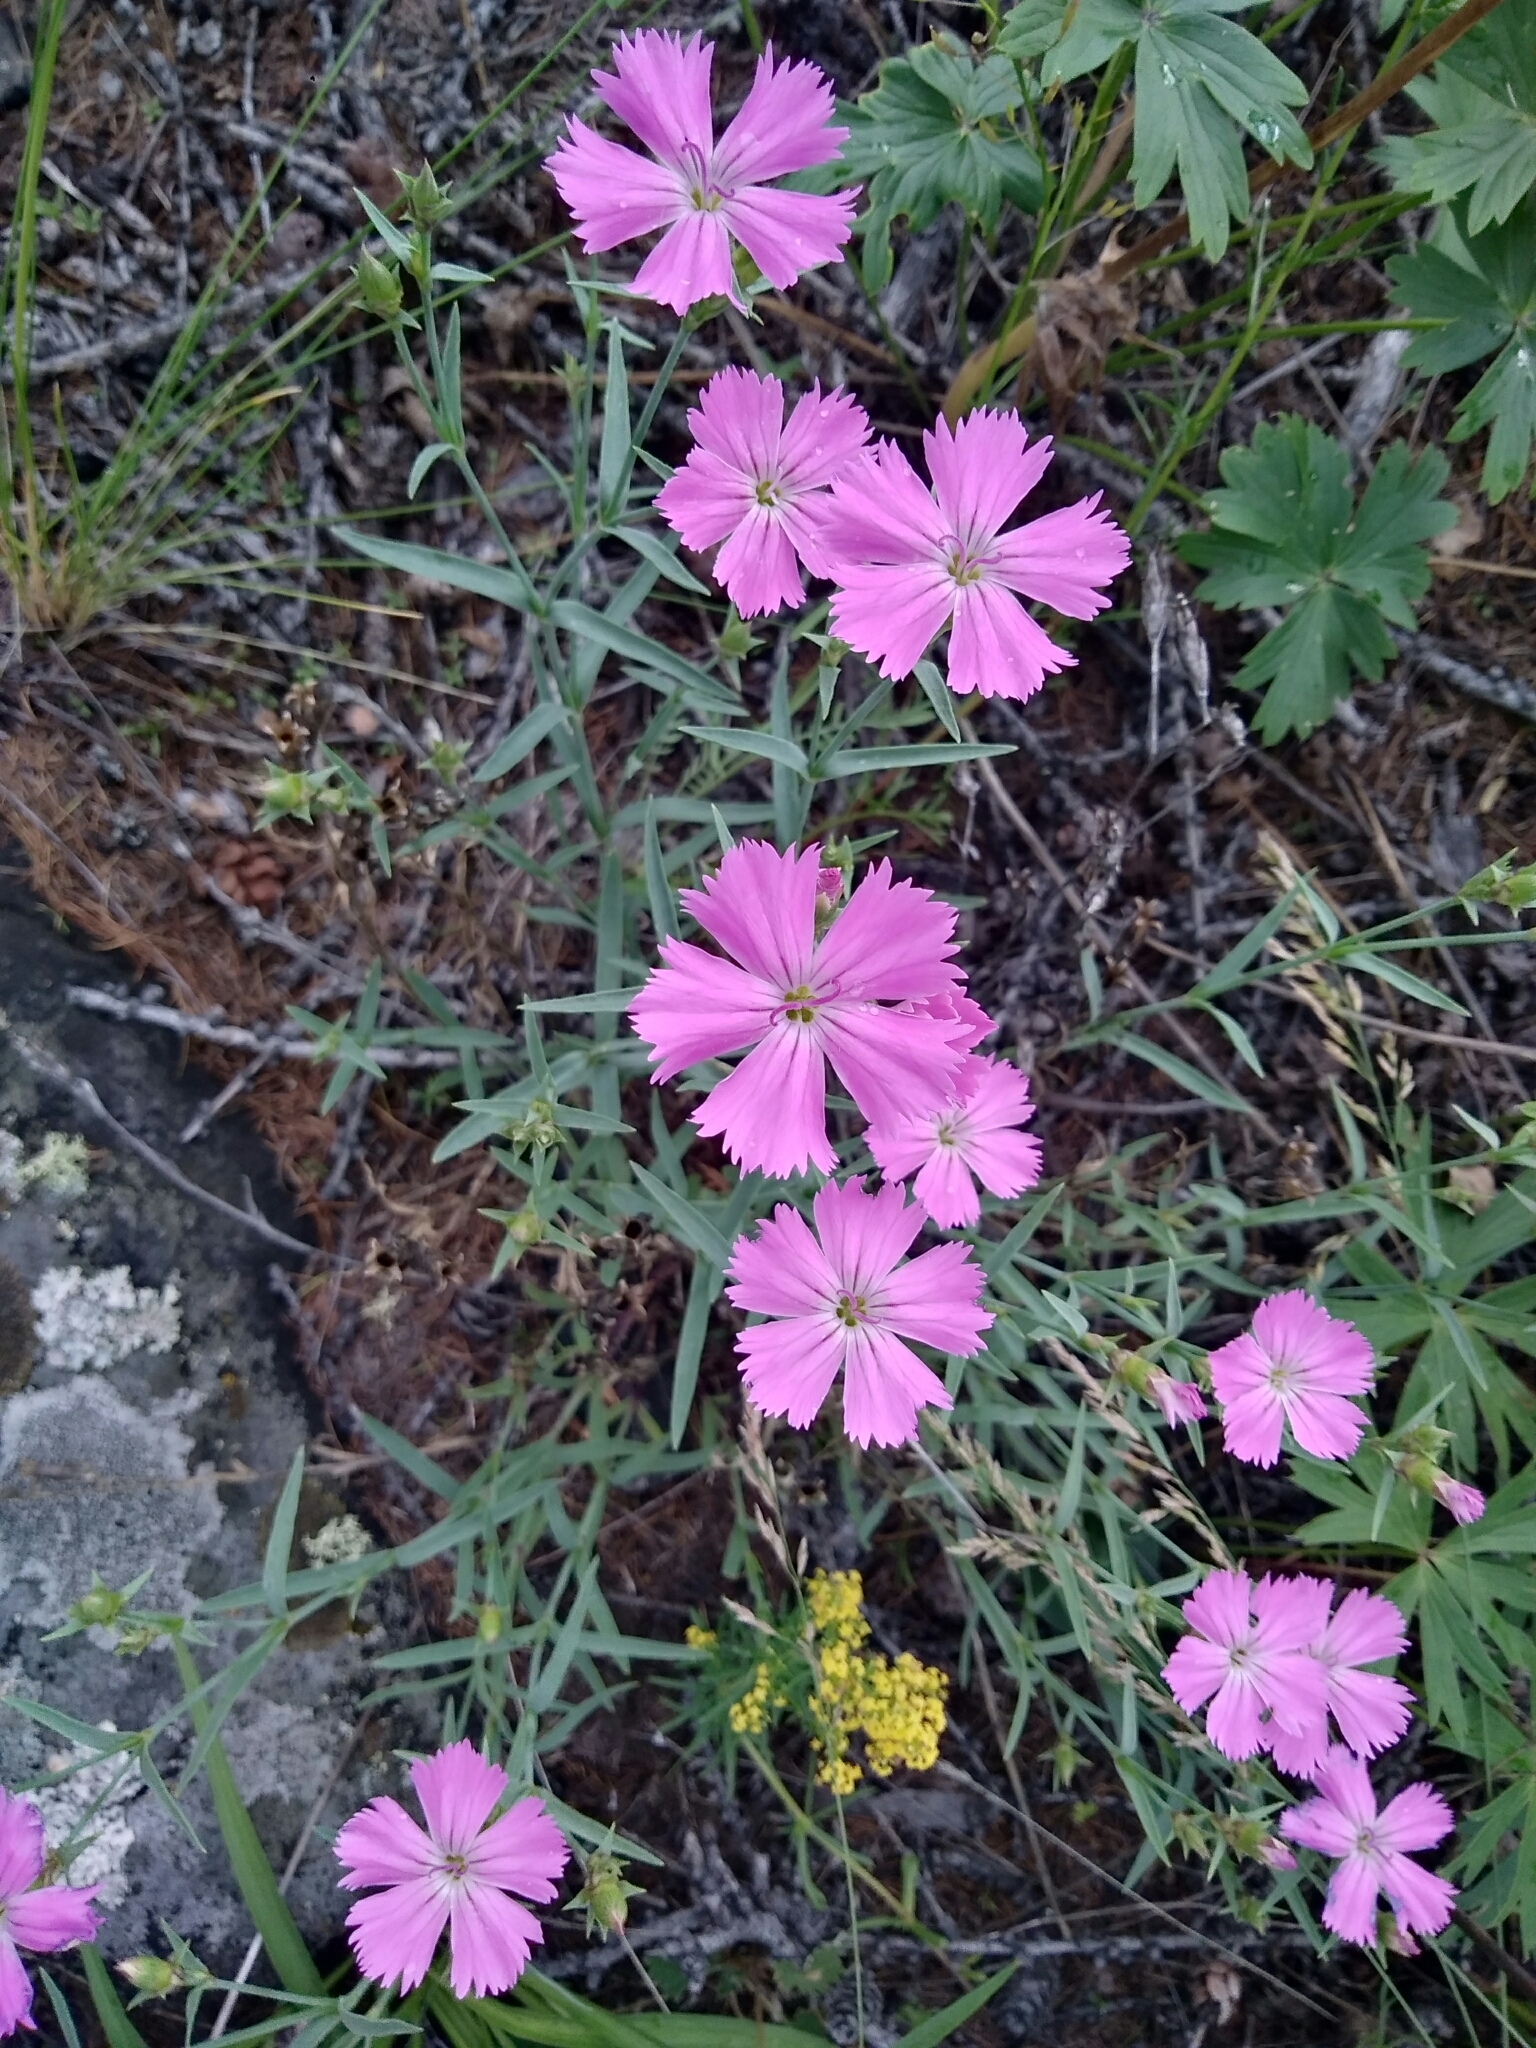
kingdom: Plantae
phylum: Tracheophyta
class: Magnoliopsida
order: Caryophyllales
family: Caryophyllaceae
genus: Dianthus
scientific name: Dianthus chinensis
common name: Rainbow pink
